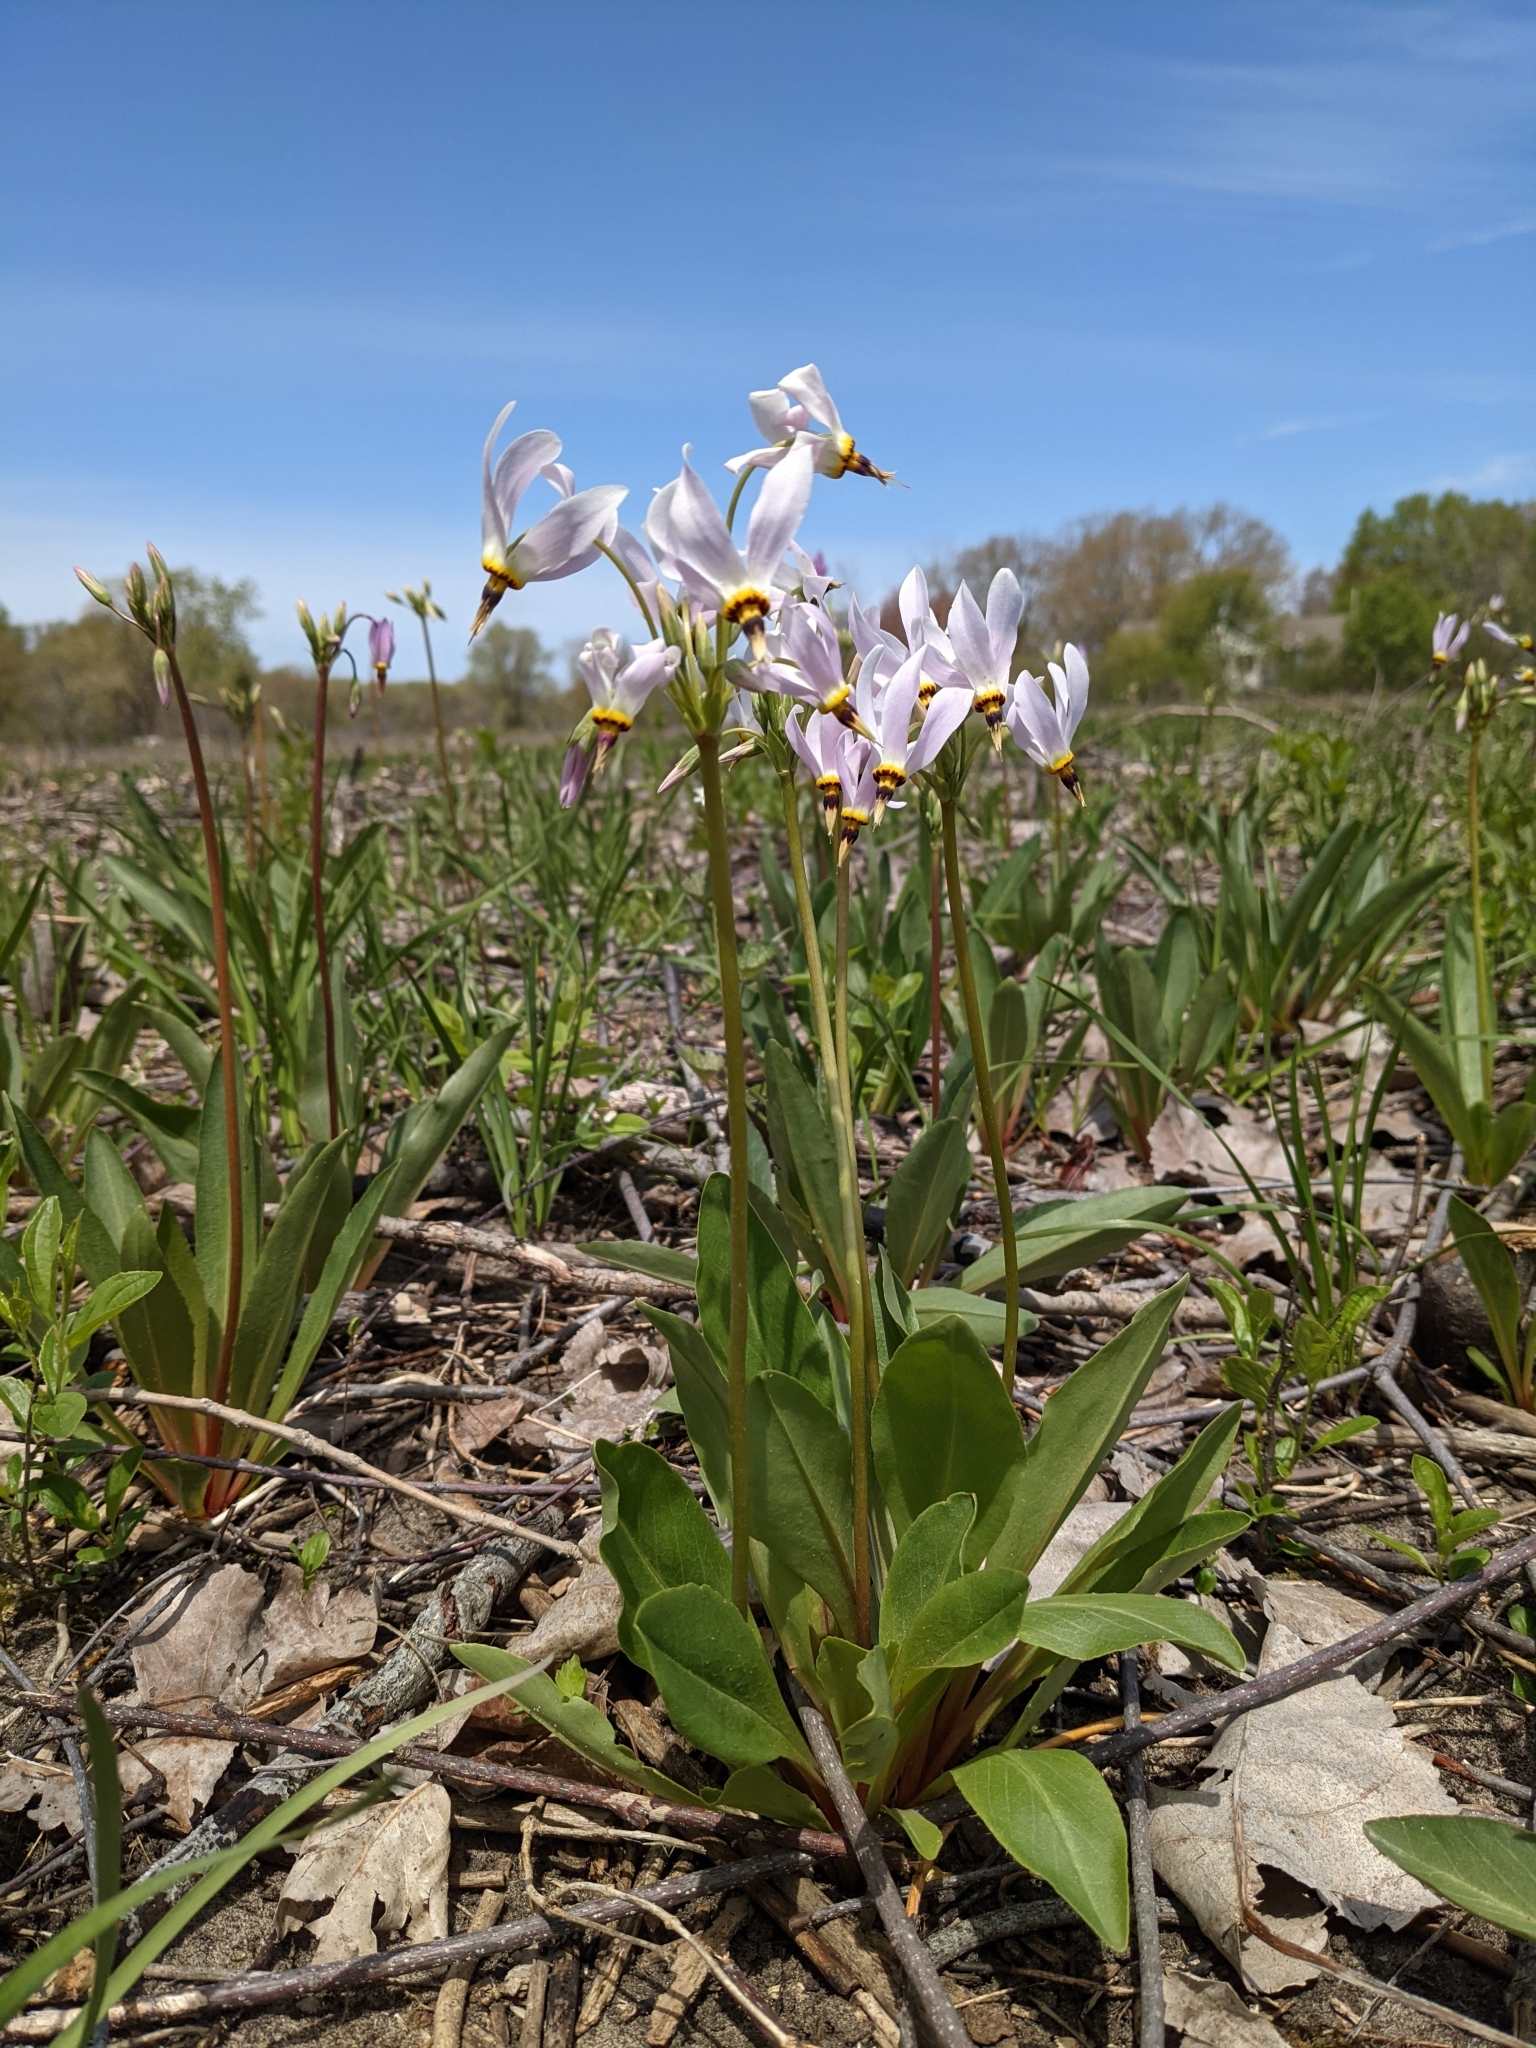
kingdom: Plantae
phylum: Tracheophyta
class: Magnoliopsida
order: Ericales
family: Primulaceae
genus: Dodecatheon
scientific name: Dodecatheon meadia
